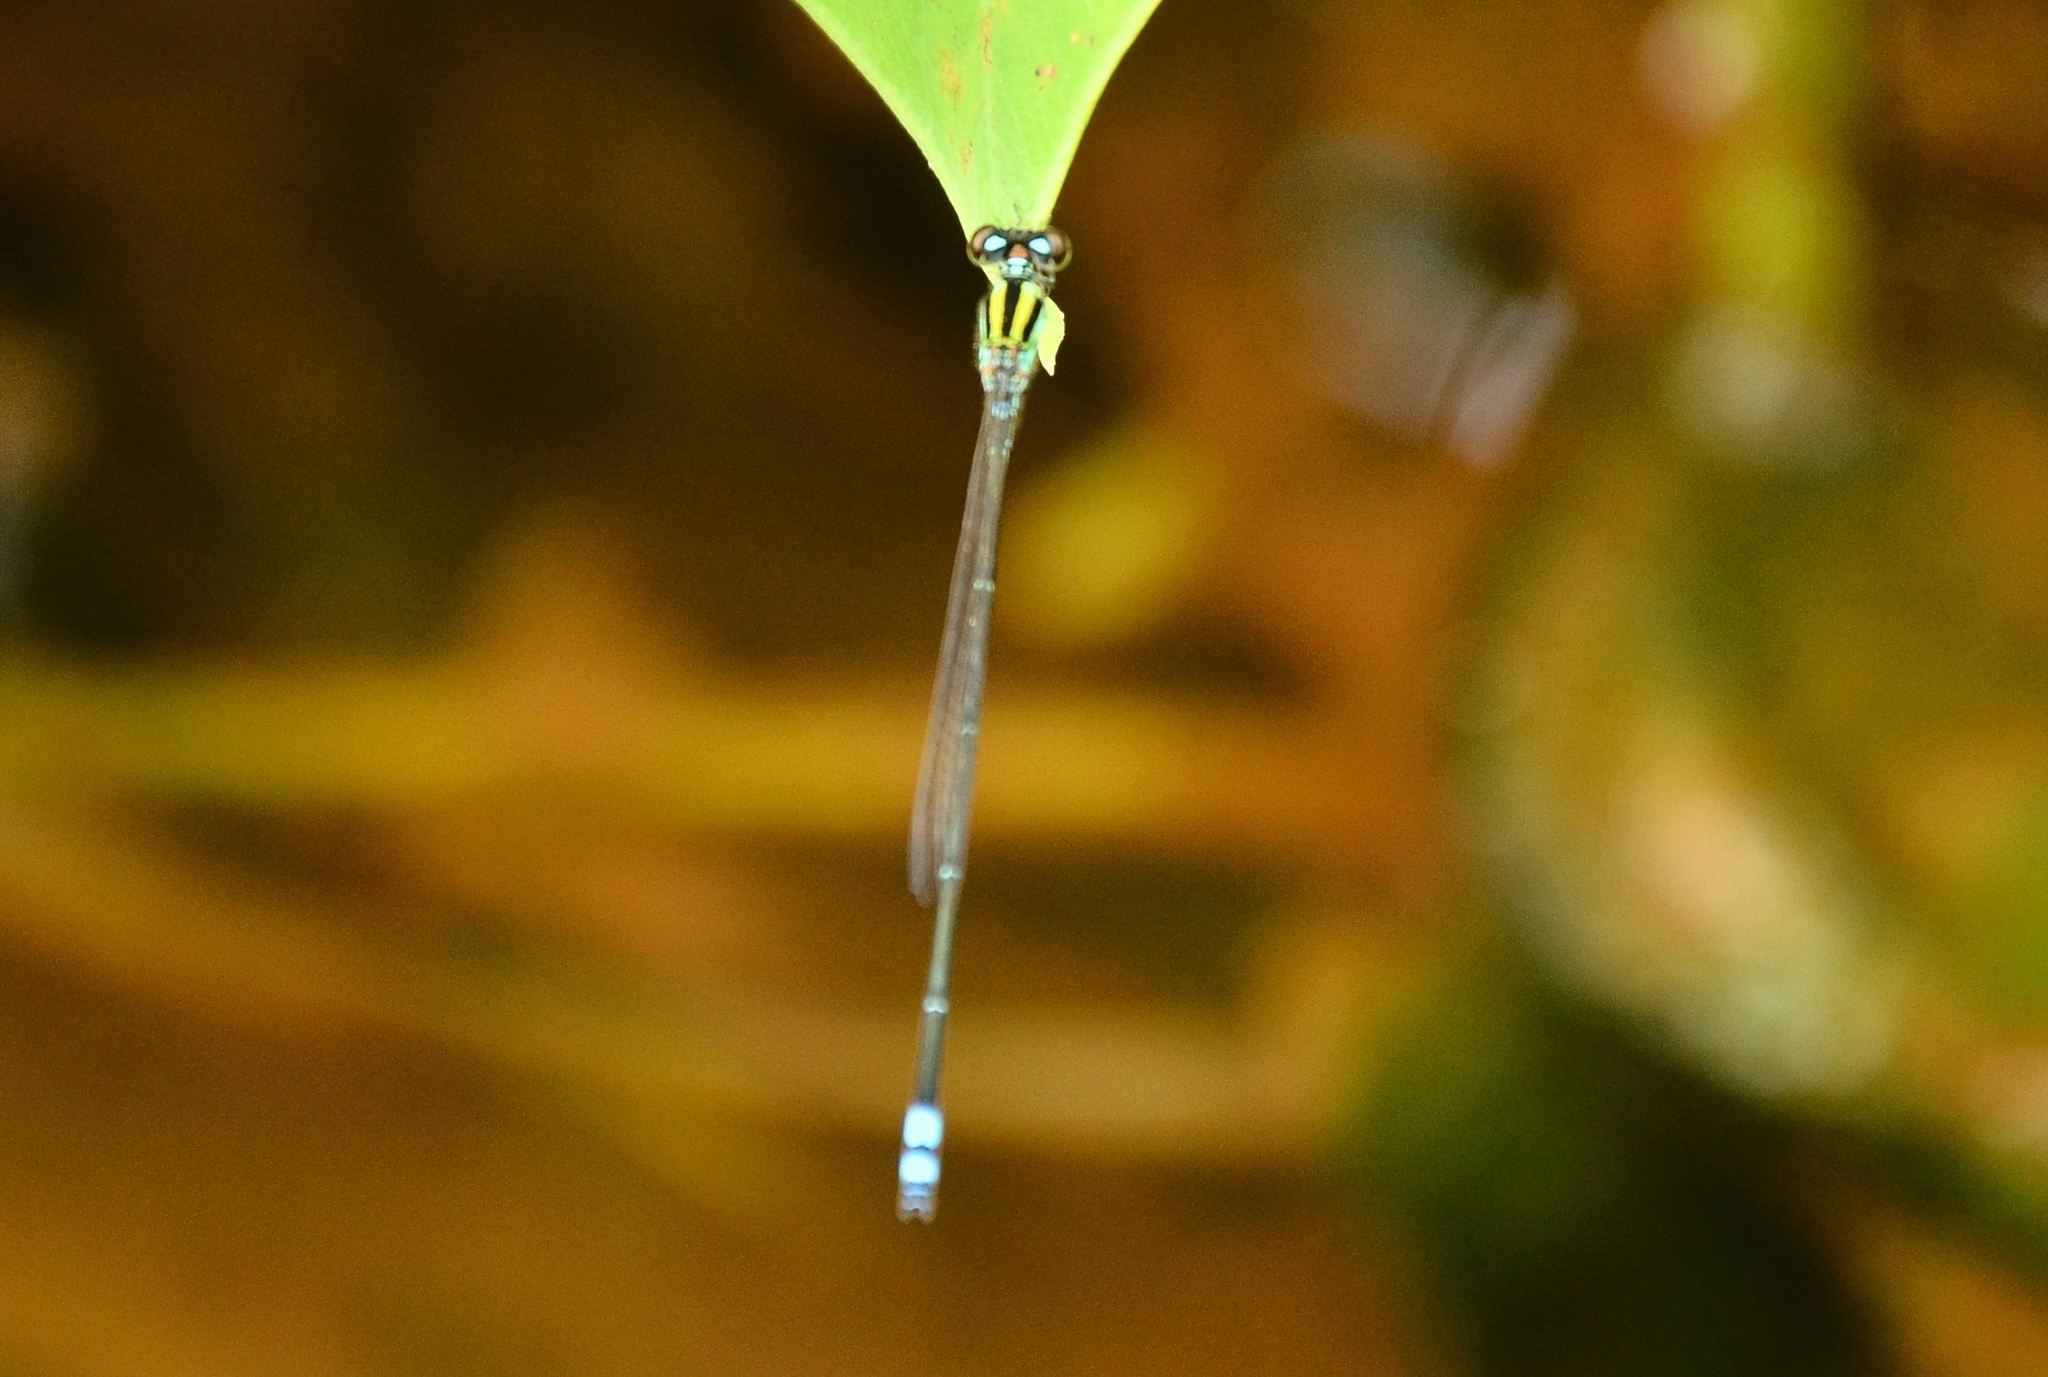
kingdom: Animalia
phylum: Arthropoda
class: Insecta
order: Odonata
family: Coenagrionidae
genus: Pseudagrion
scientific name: Pseudagrion indicum
